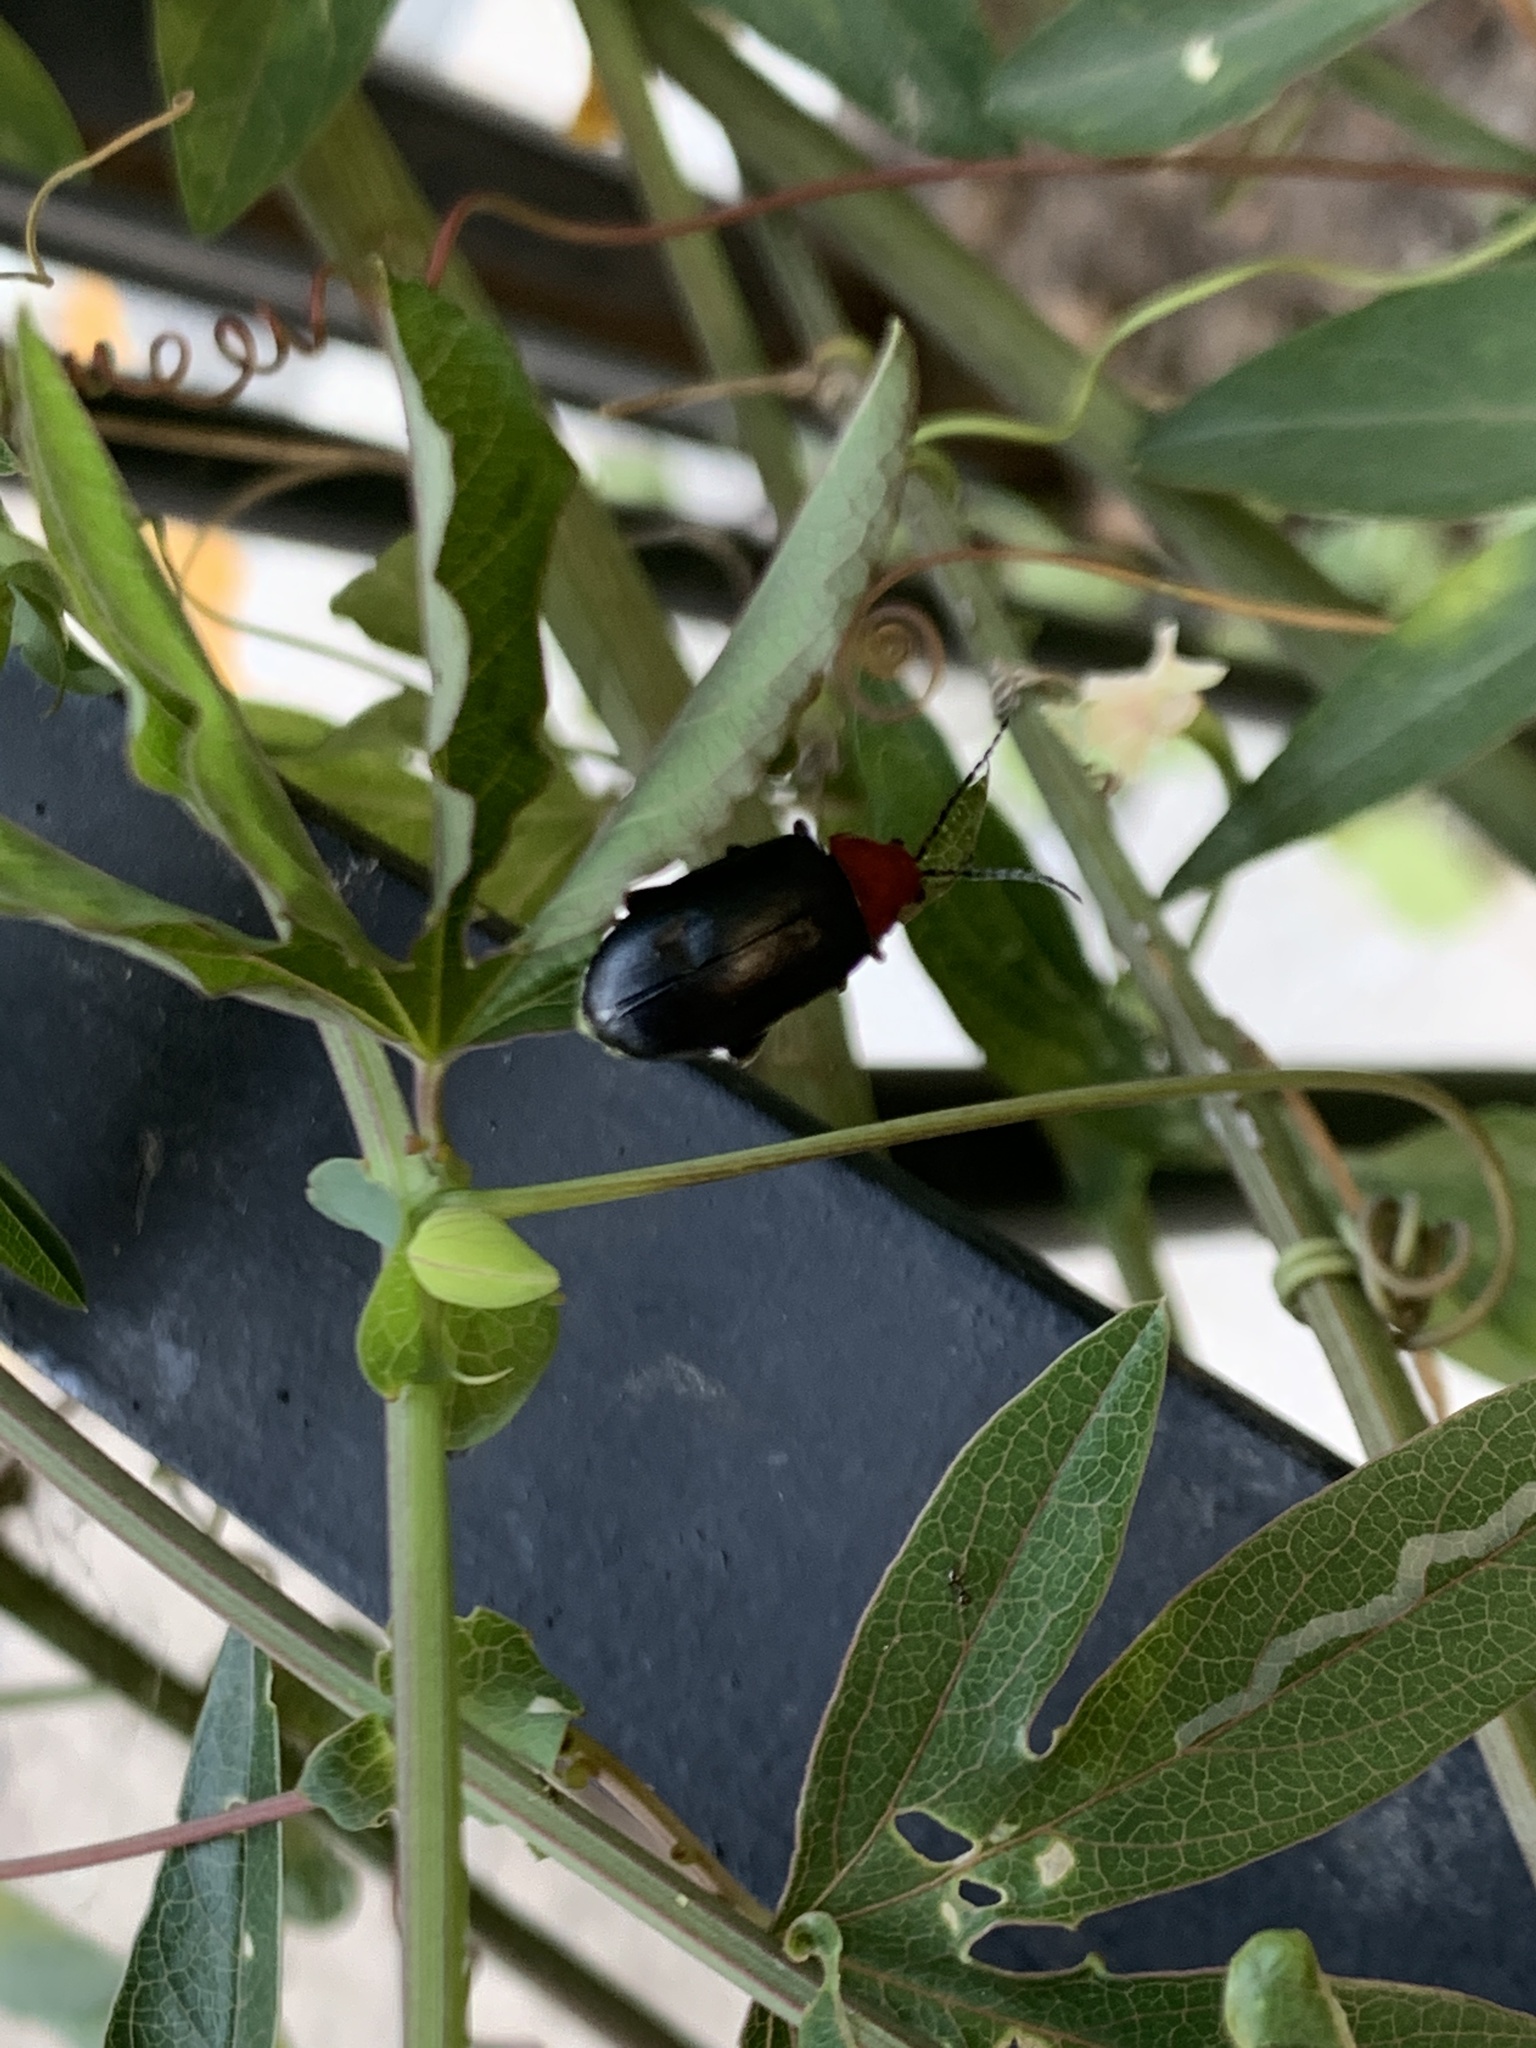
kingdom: Animalia
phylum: Arthropoda
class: Insecta
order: Coleoptera
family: Chrysomelidae
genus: Cacoscelis
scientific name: Cacoscelis
